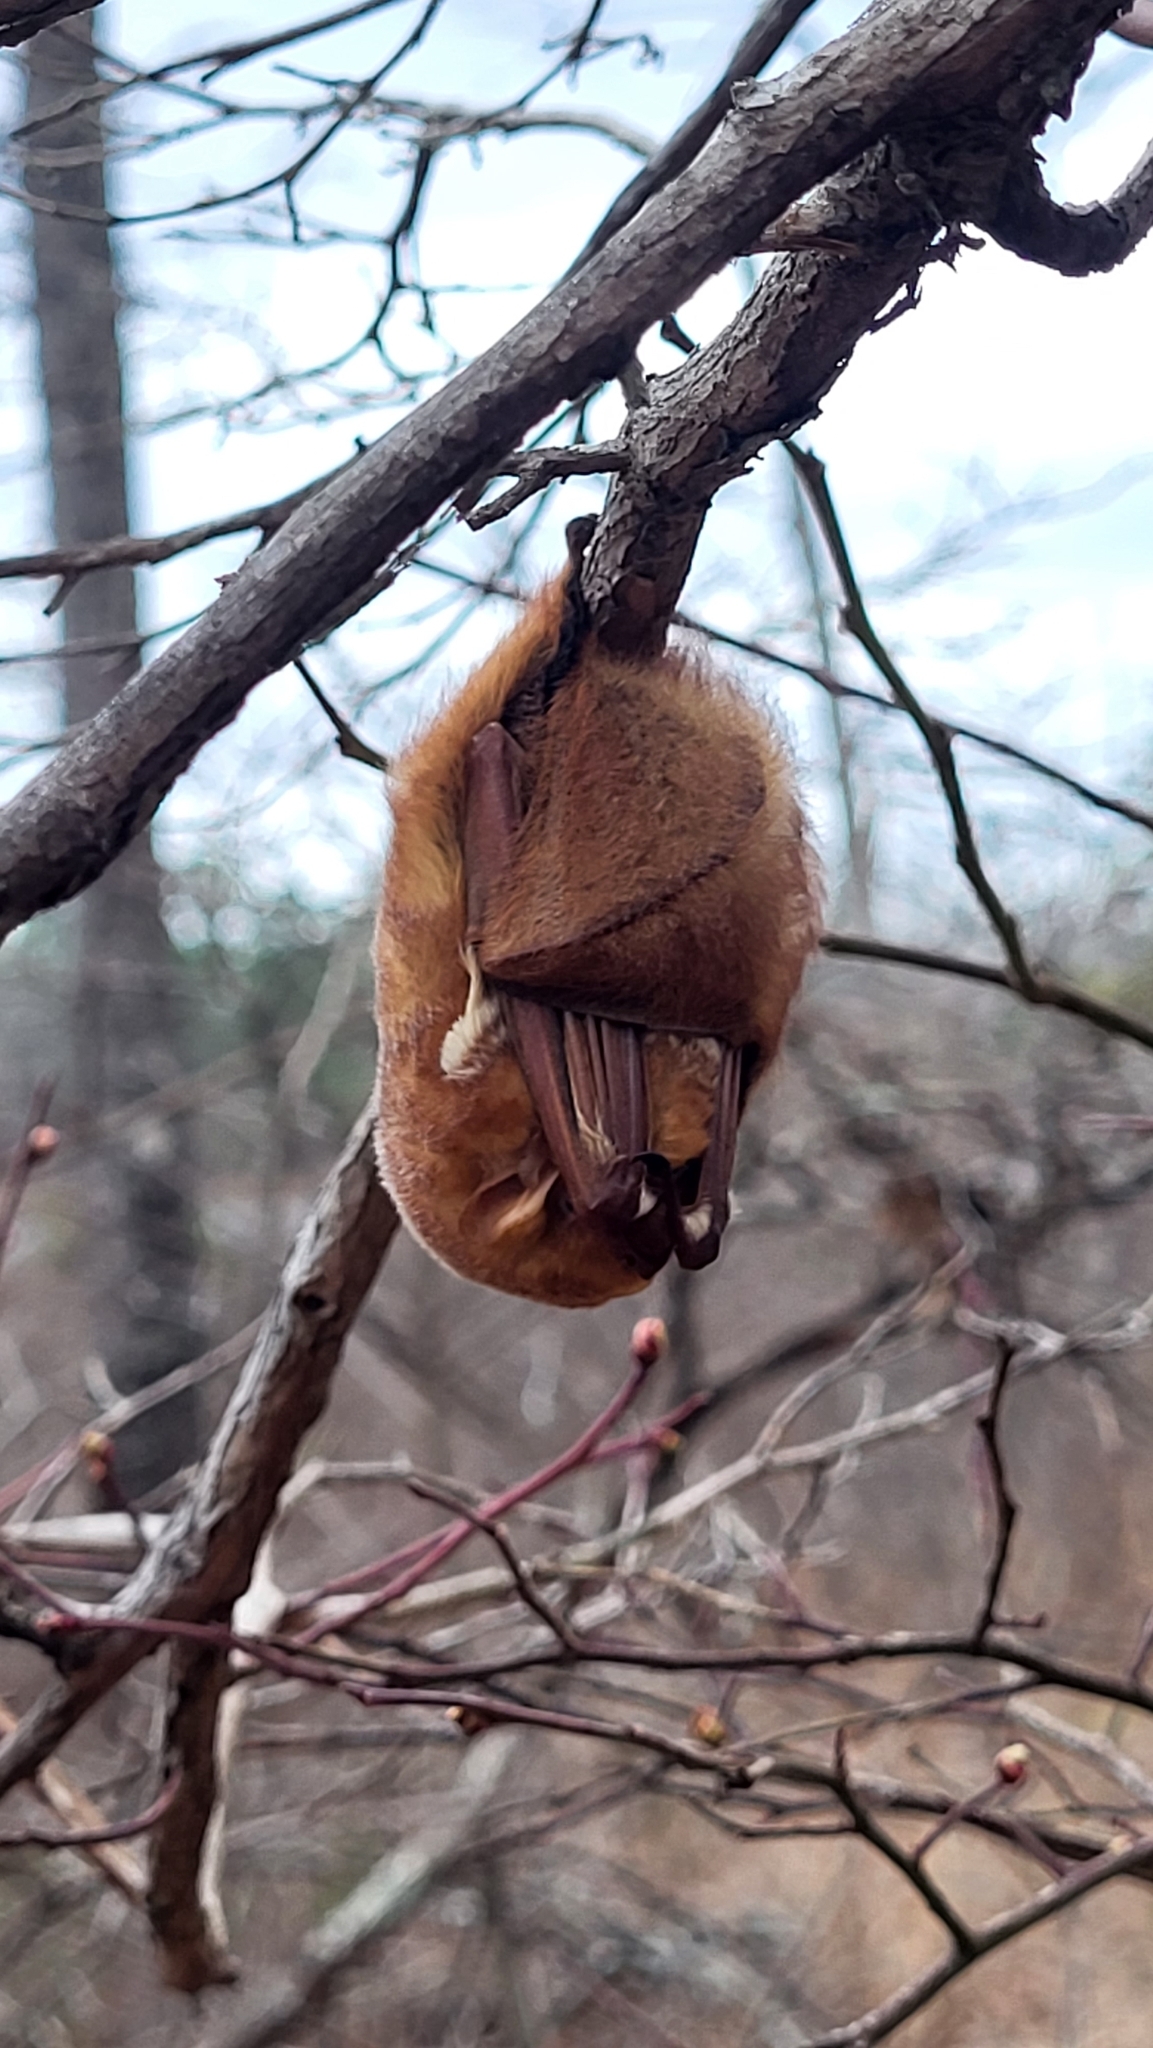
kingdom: Animalia
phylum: Chordata
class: Mammalia
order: Chiroptera
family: Vespertilionidae
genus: Lasiurus
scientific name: Lasiurus borealis
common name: Eastern red bat
